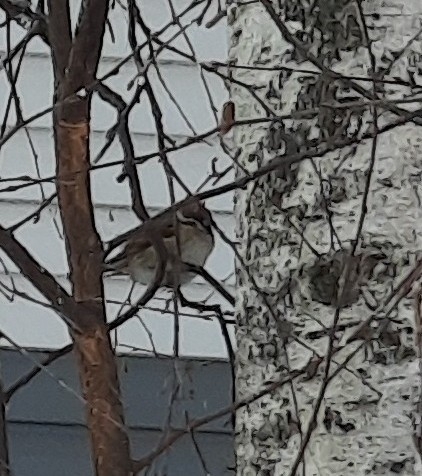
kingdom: Animalia
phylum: Chordata
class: Aves
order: Passeriformes
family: Passeridae
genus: Passer
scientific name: Passer montanus
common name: Eurasian tree sparrow
